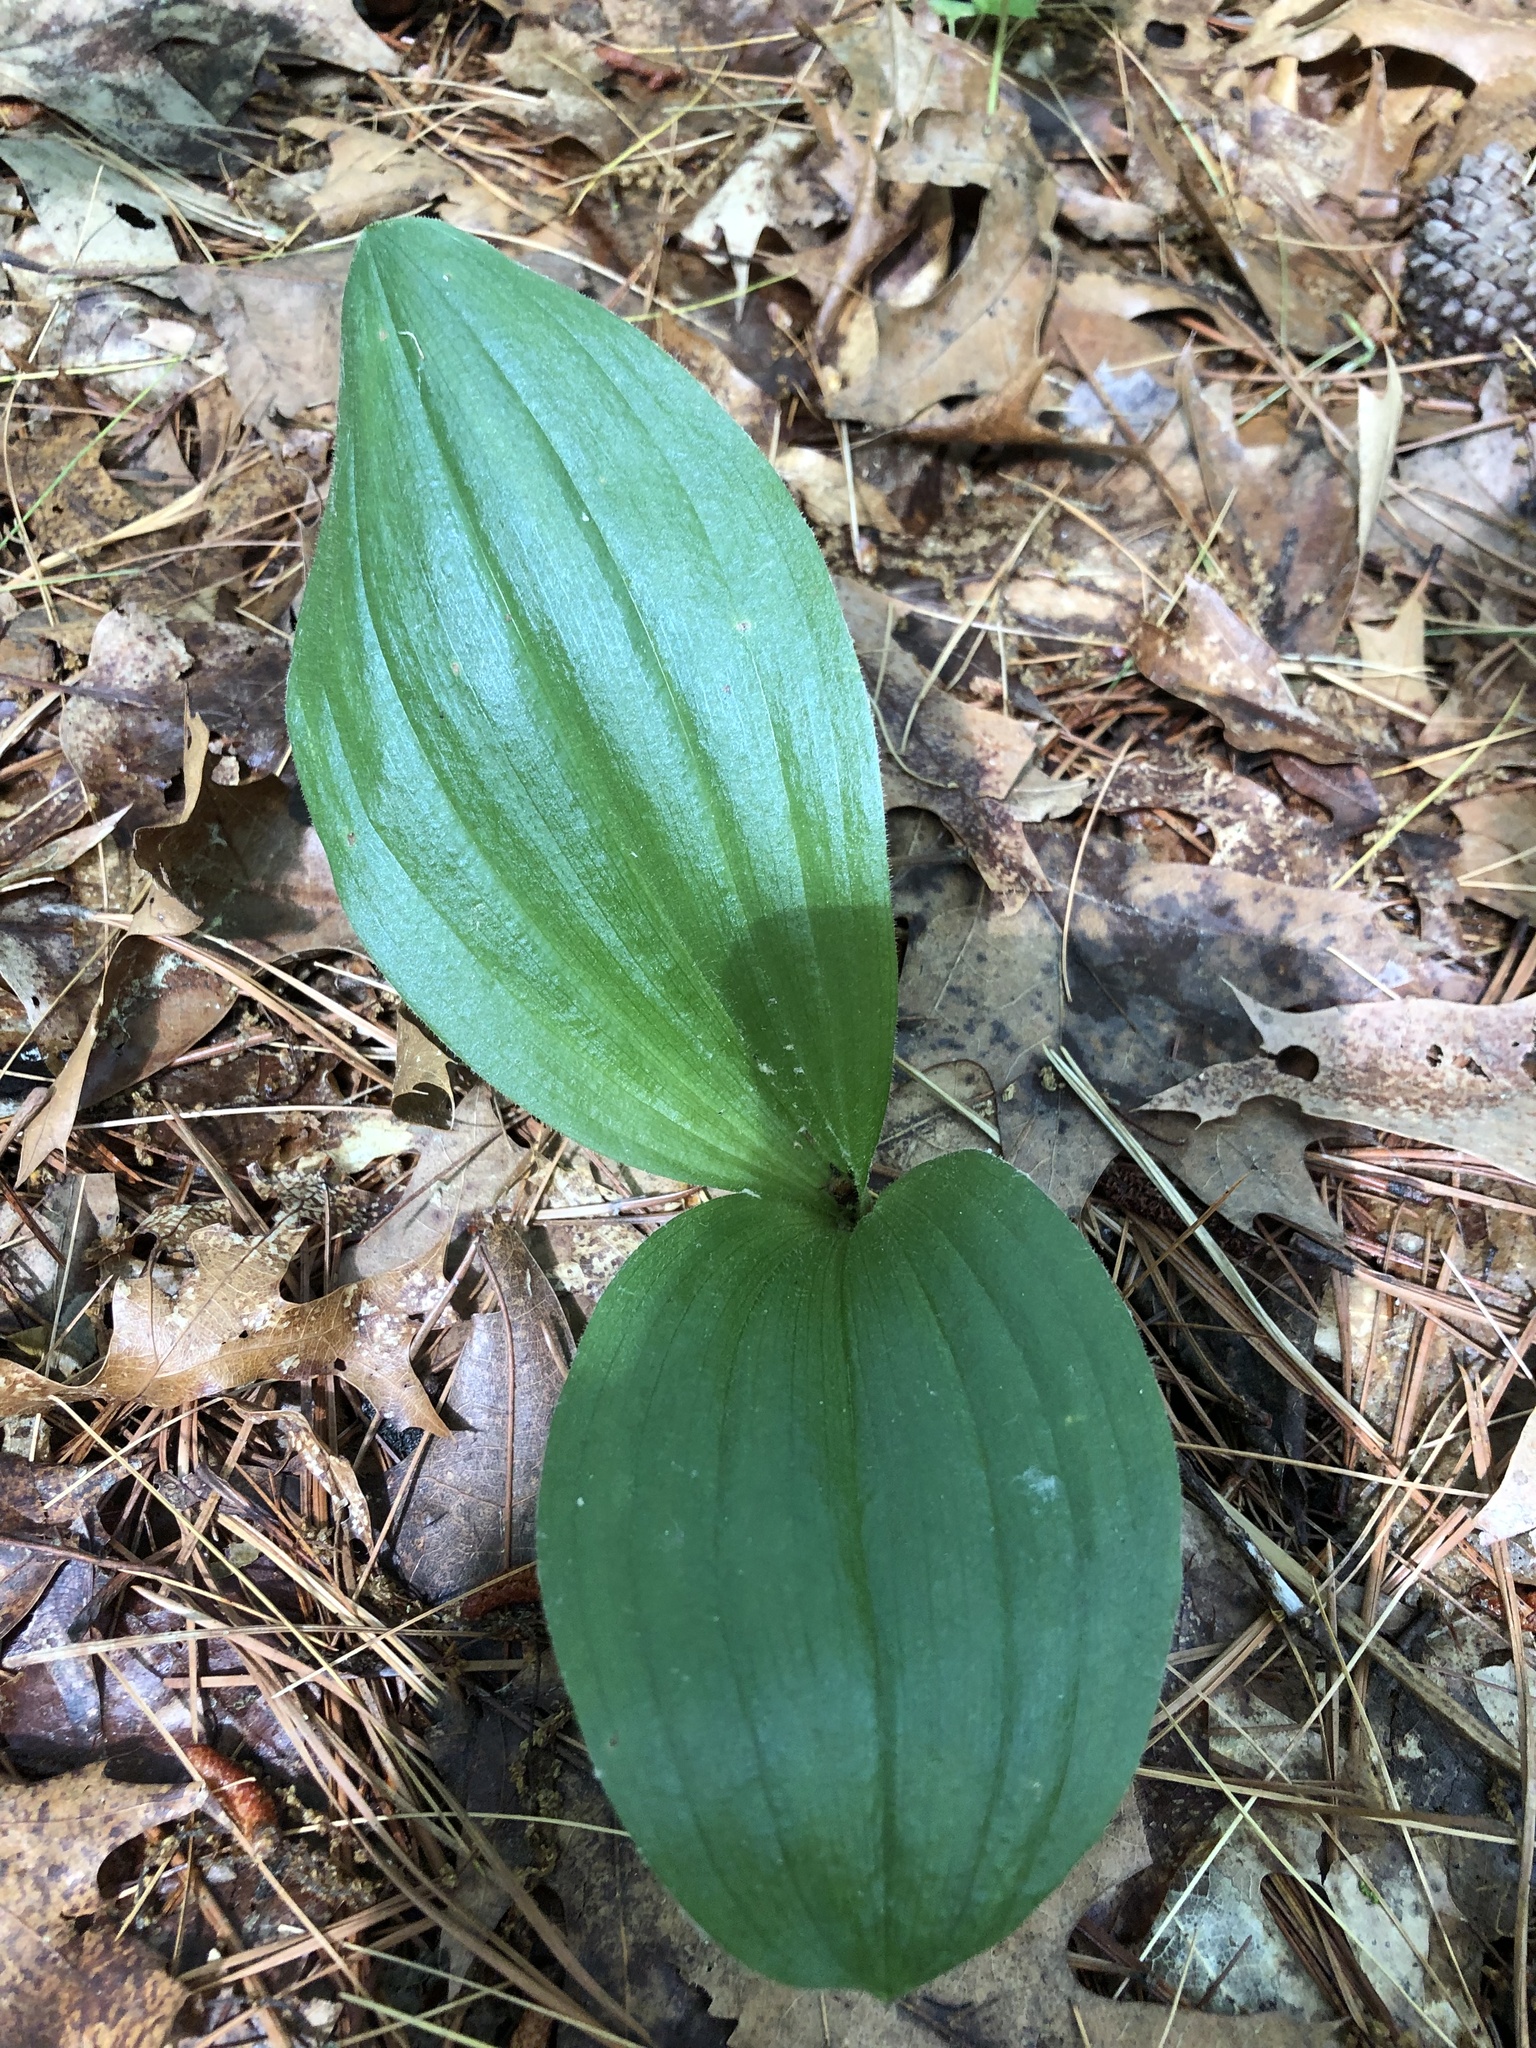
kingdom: Plantae
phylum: Tracheophyta
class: Liliopsida
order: Asparagales
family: Orchidaceae
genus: Cypripedium
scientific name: Cypripedium acaule
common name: Pink lady's-slipper
